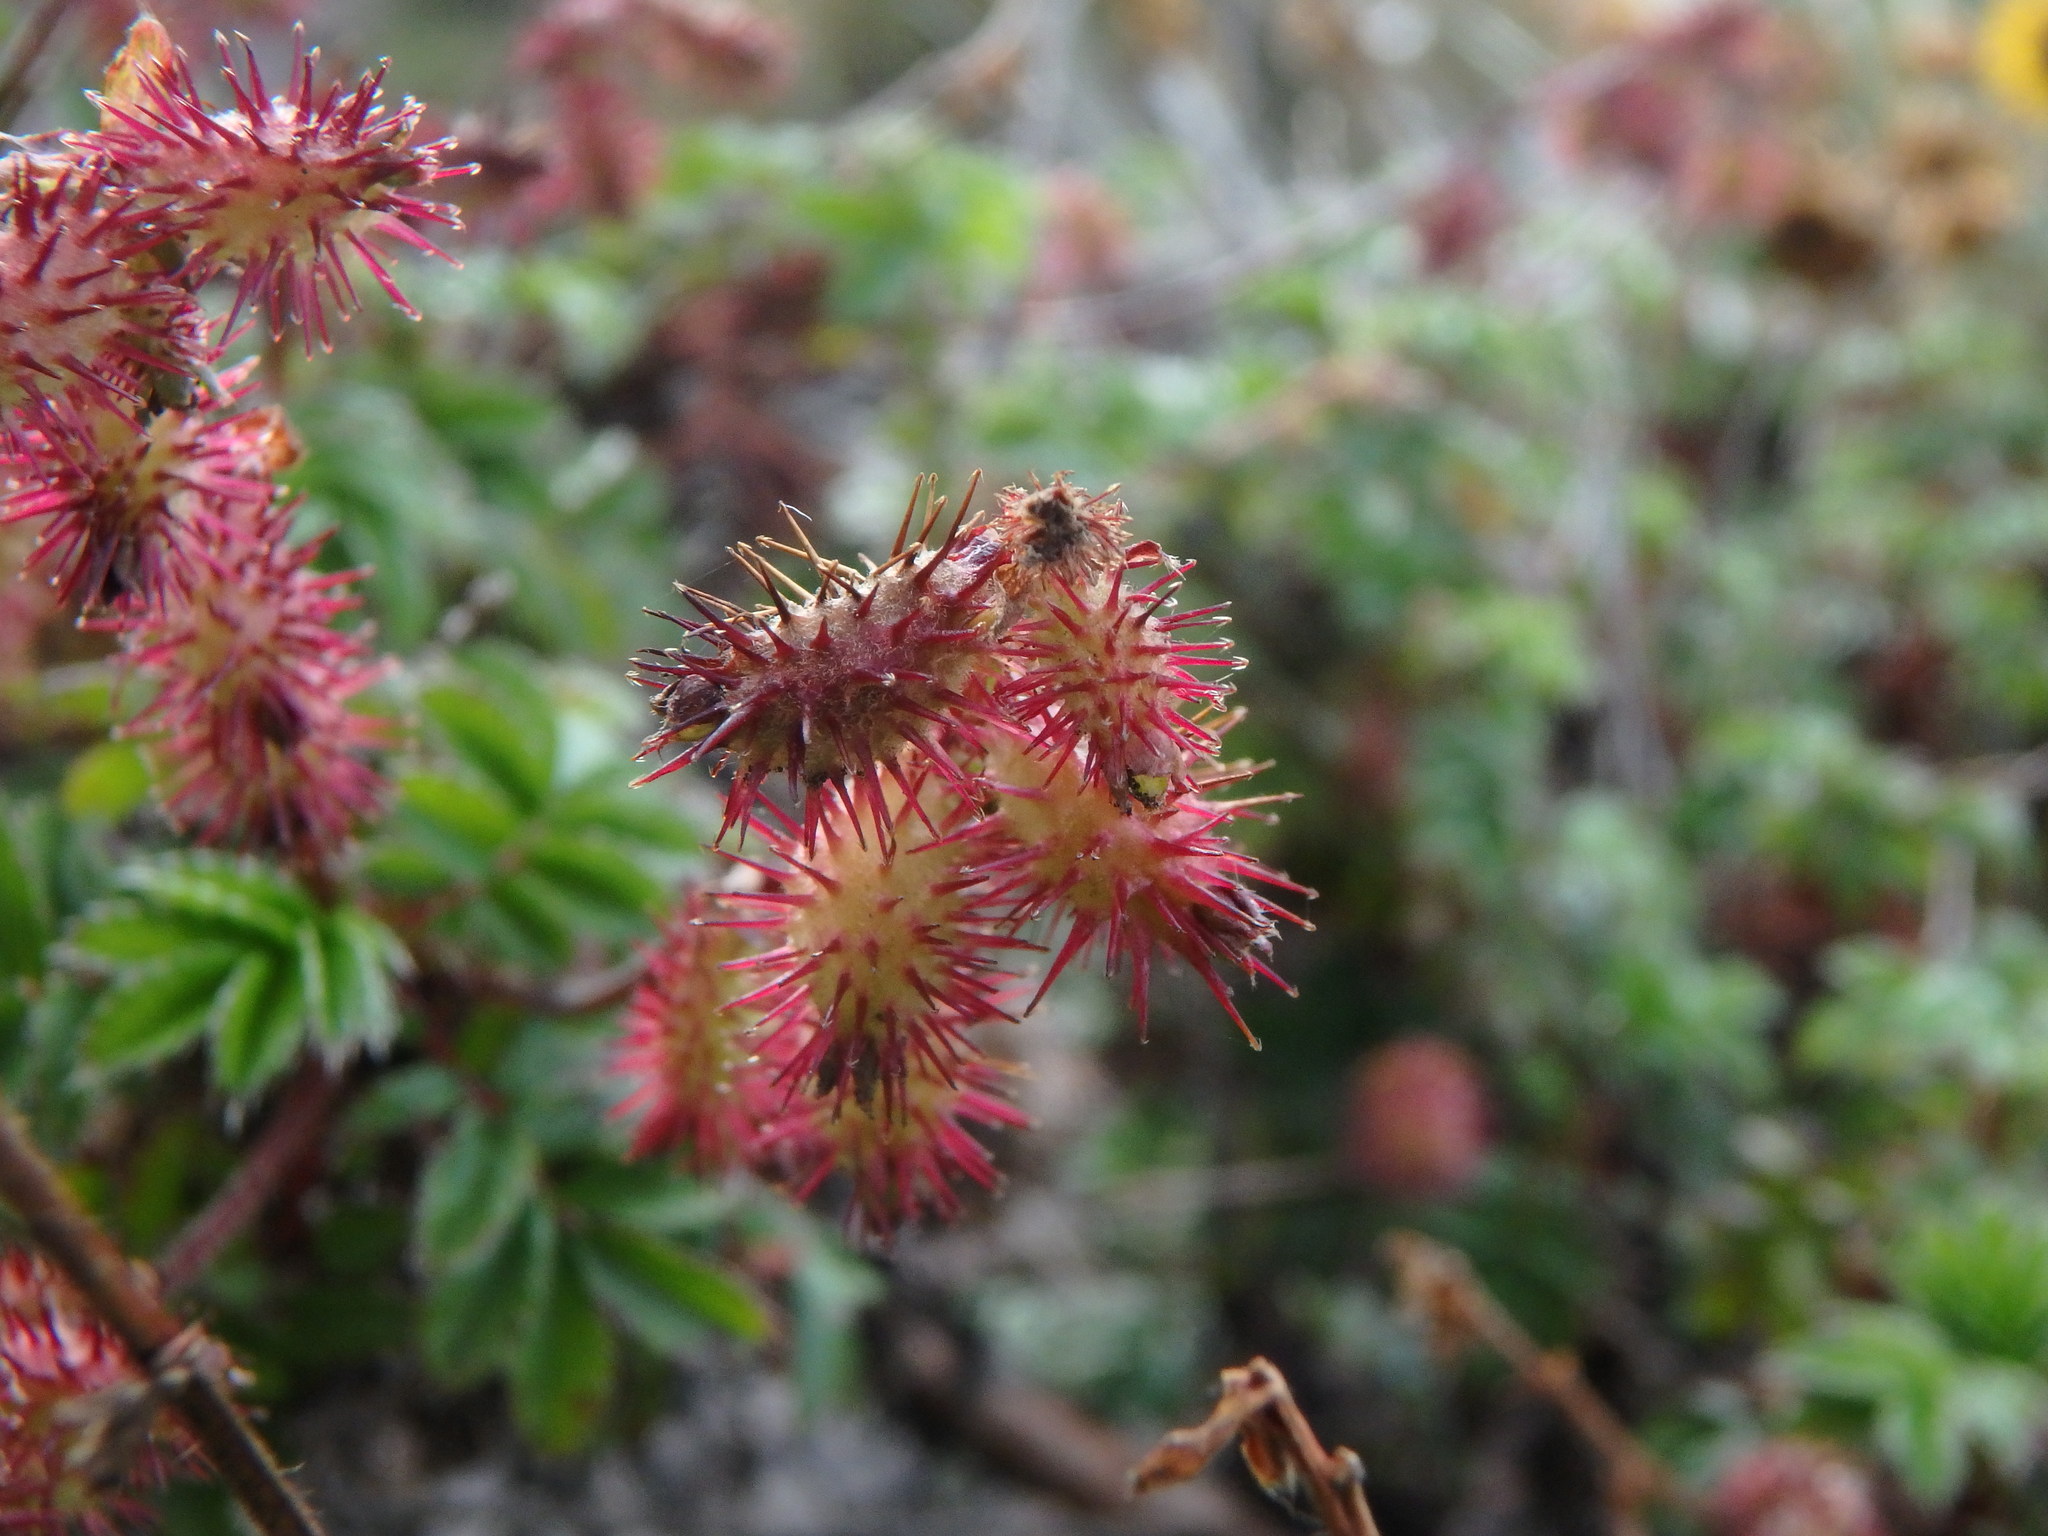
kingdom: Plantae
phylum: Tracheophyta
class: Magnoliopsida
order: Rosales
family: Rosaceae
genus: Acaena
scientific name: Acaena elongata
